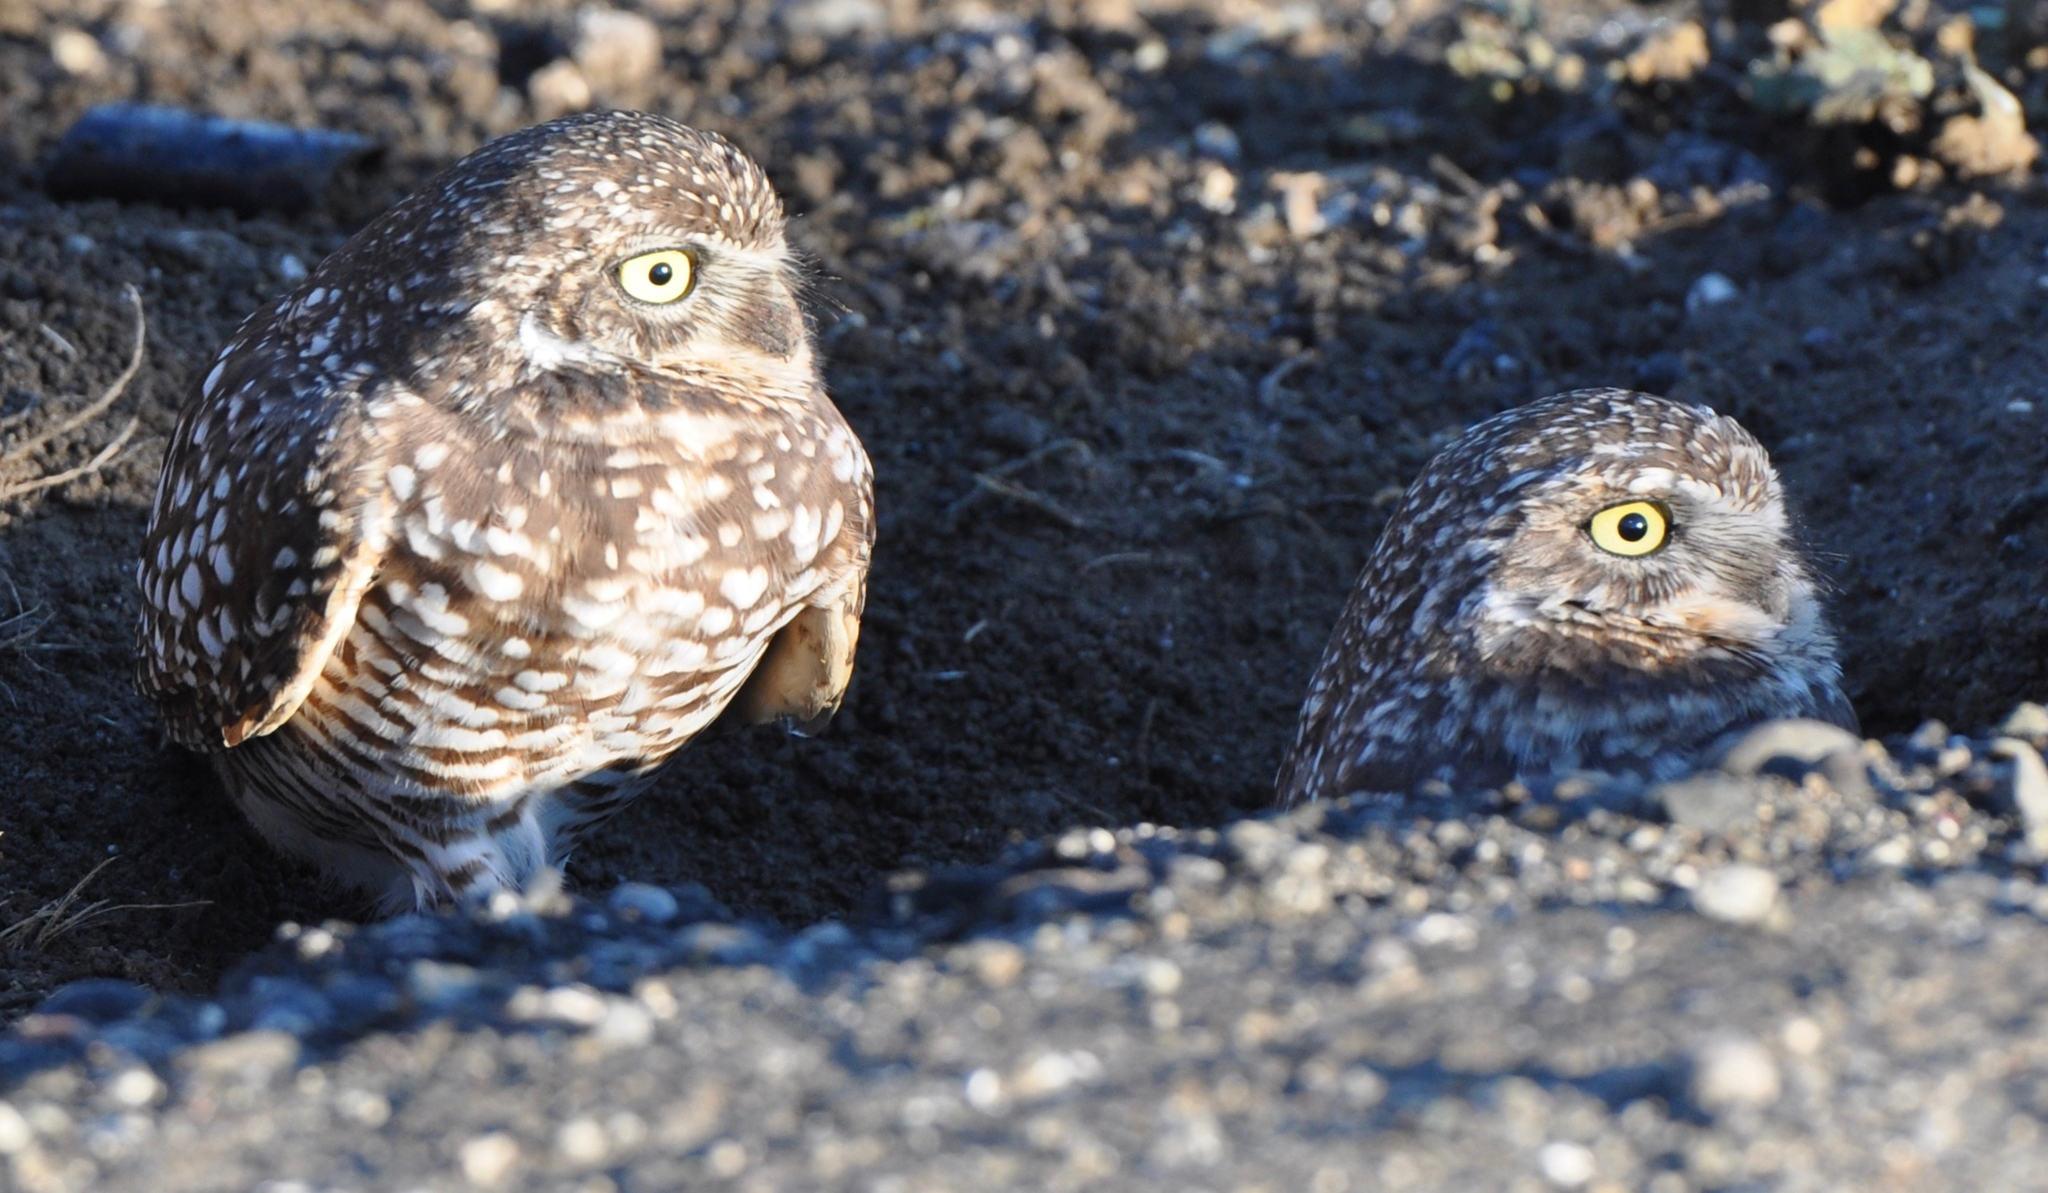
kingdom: Animalia
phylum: Chordata
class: Aves
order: Strigiformes
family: Strigidae
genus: Athene
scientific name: Athene cunicularia
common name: Burrowing owl
